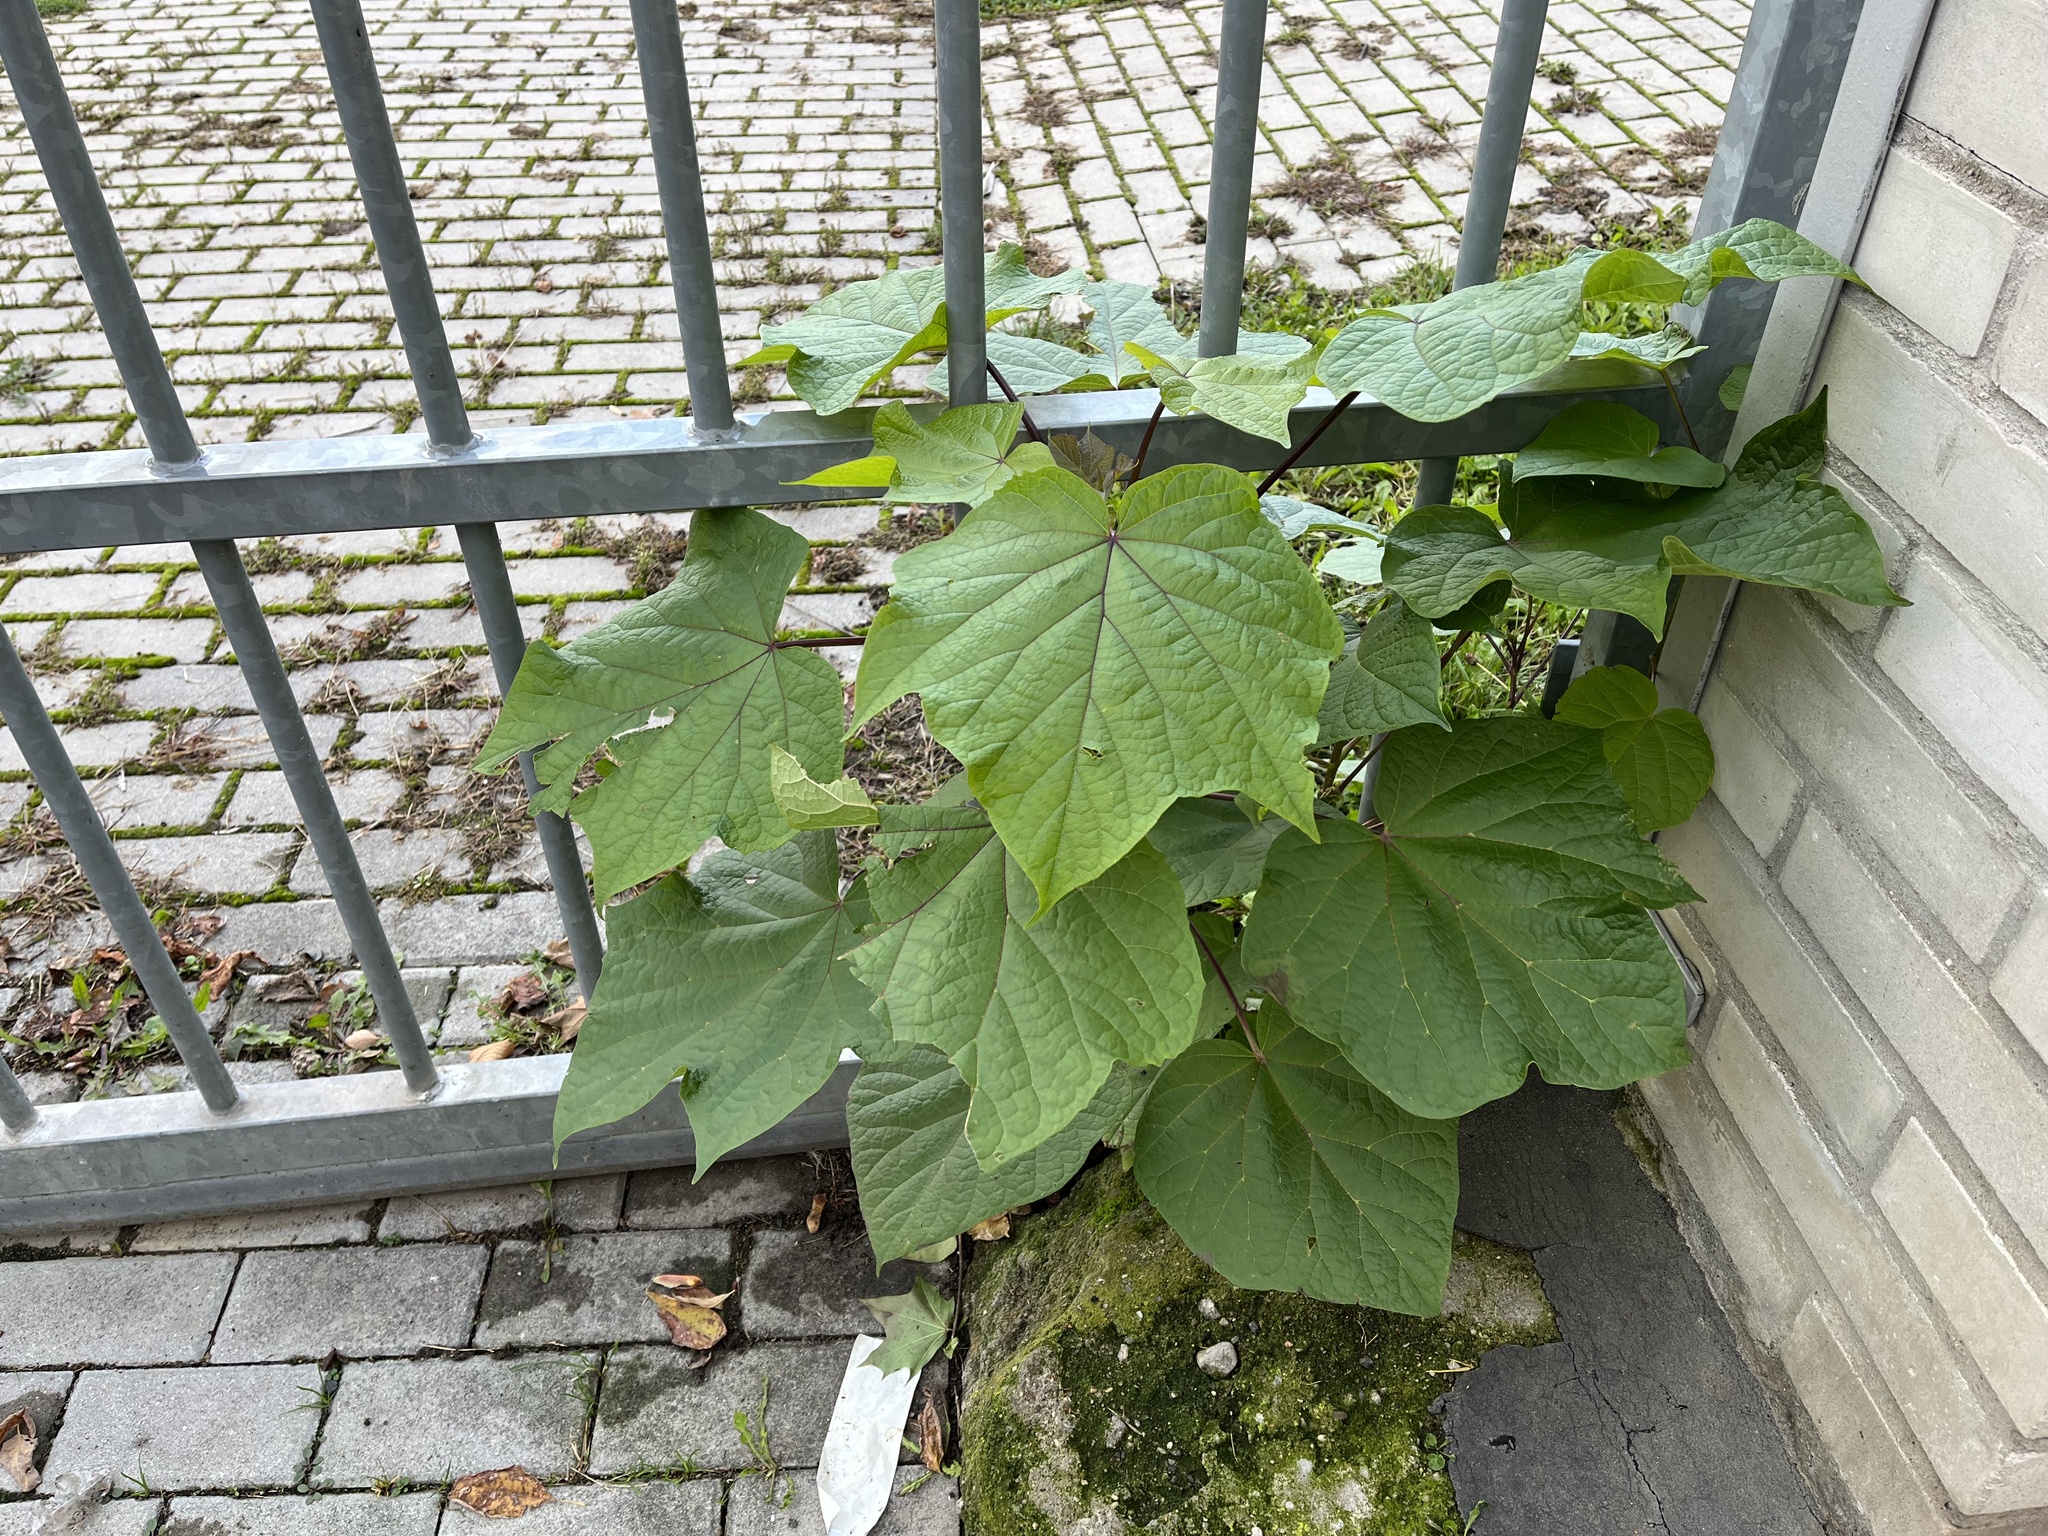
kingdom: Plantae
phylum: Tracheophyta
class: Magnoliopsida
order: Lamiales
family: Paulowniaceae
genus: Paulownia
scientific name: Paulownia tomentosa
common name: Foxglove-tree
